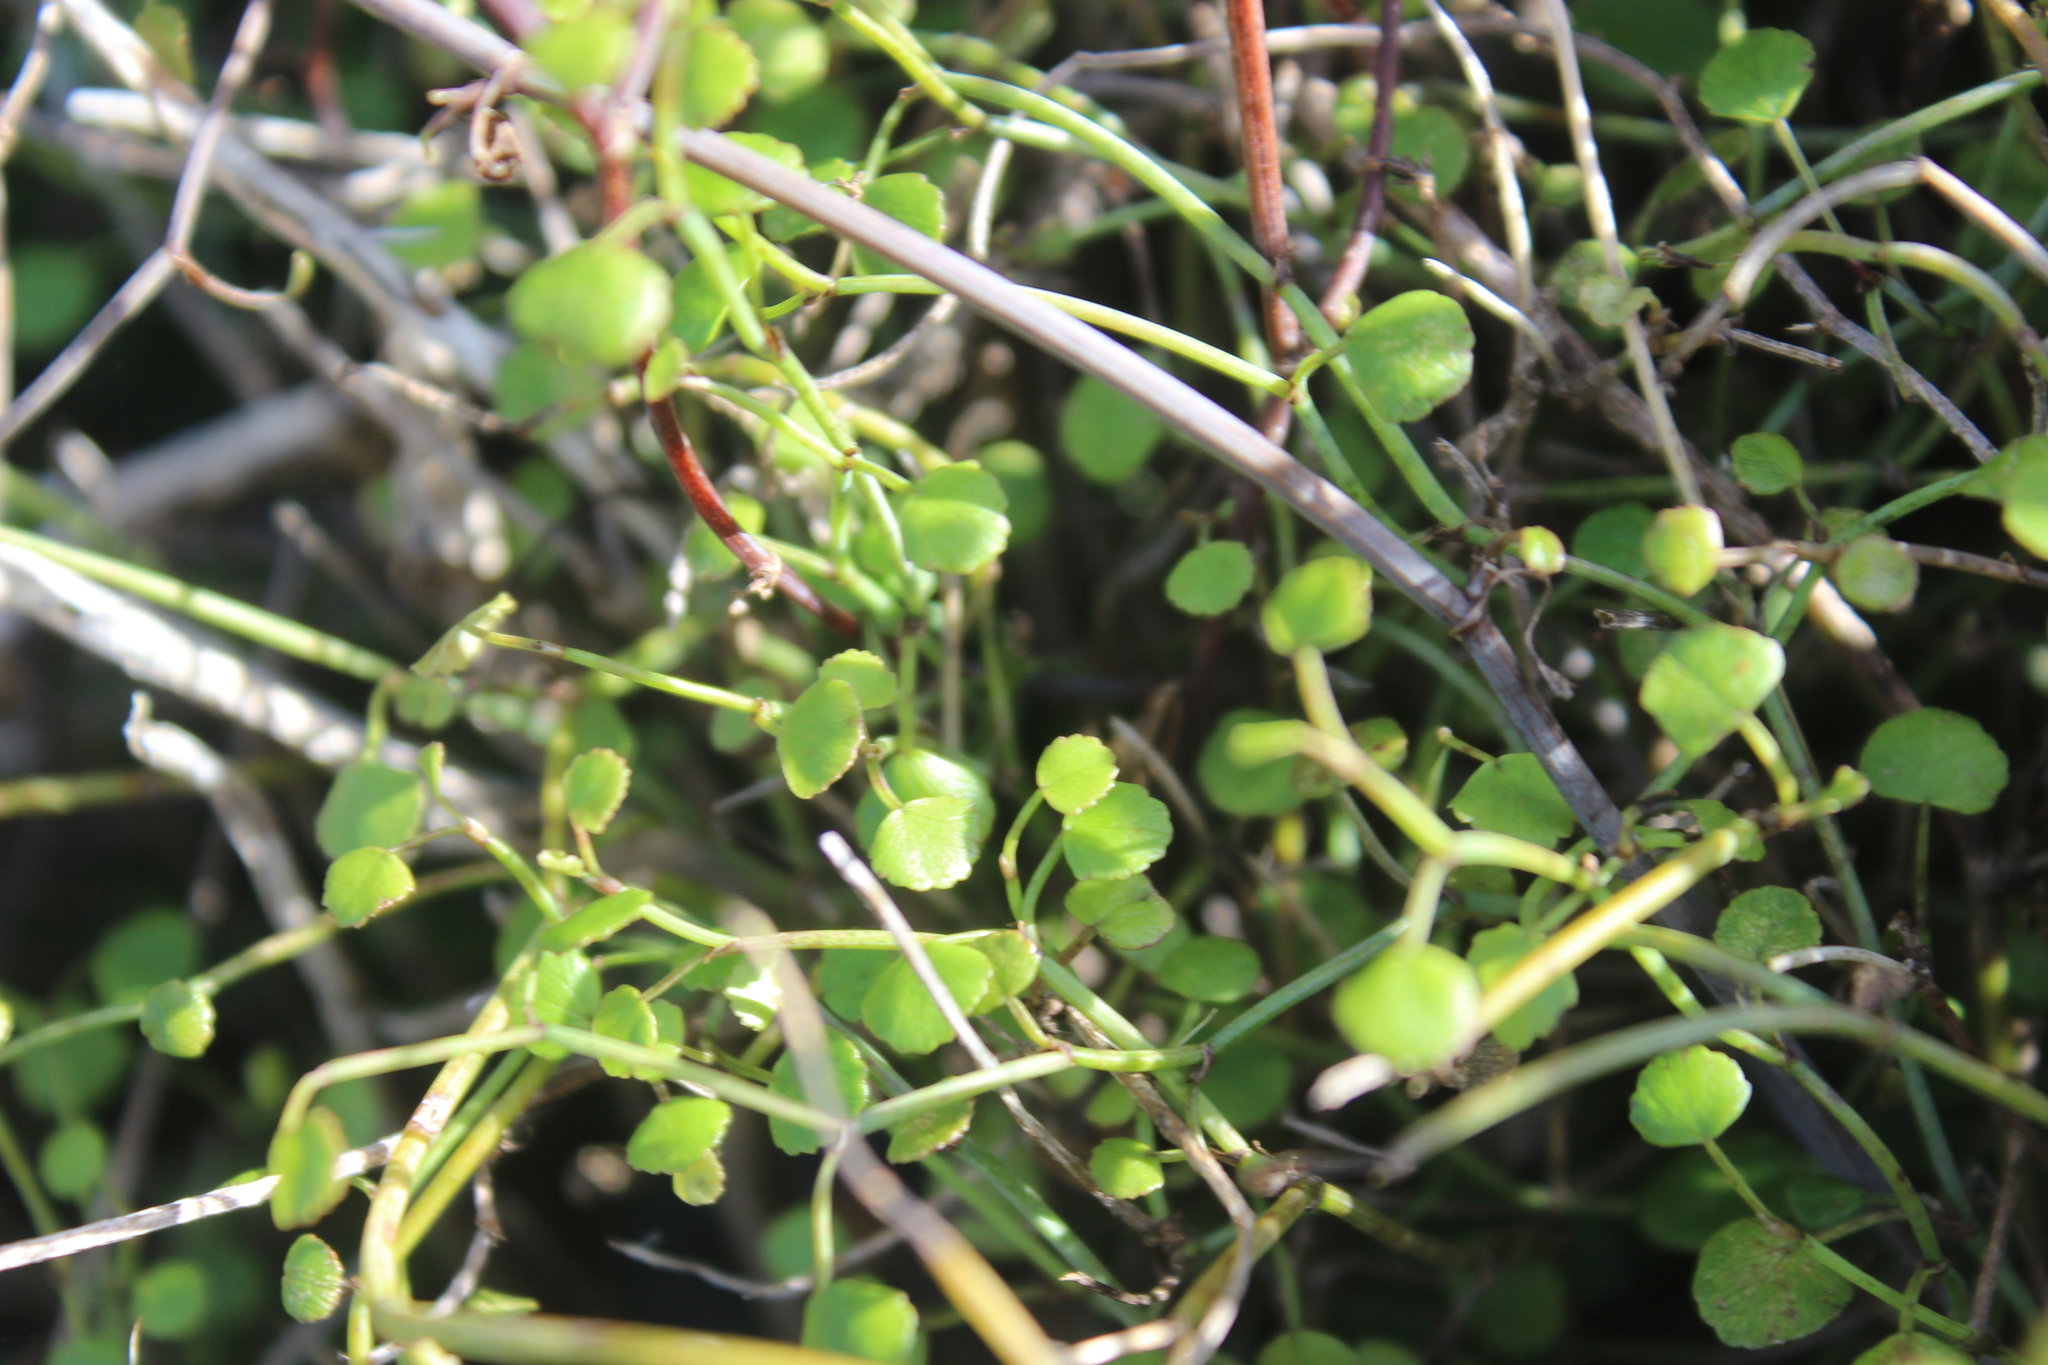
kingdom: Plantae
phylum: Tracheophyta
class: Magnoliopsida
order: Apiales
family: Apiaceae
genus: Scandia
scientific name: Scandia geniculata
